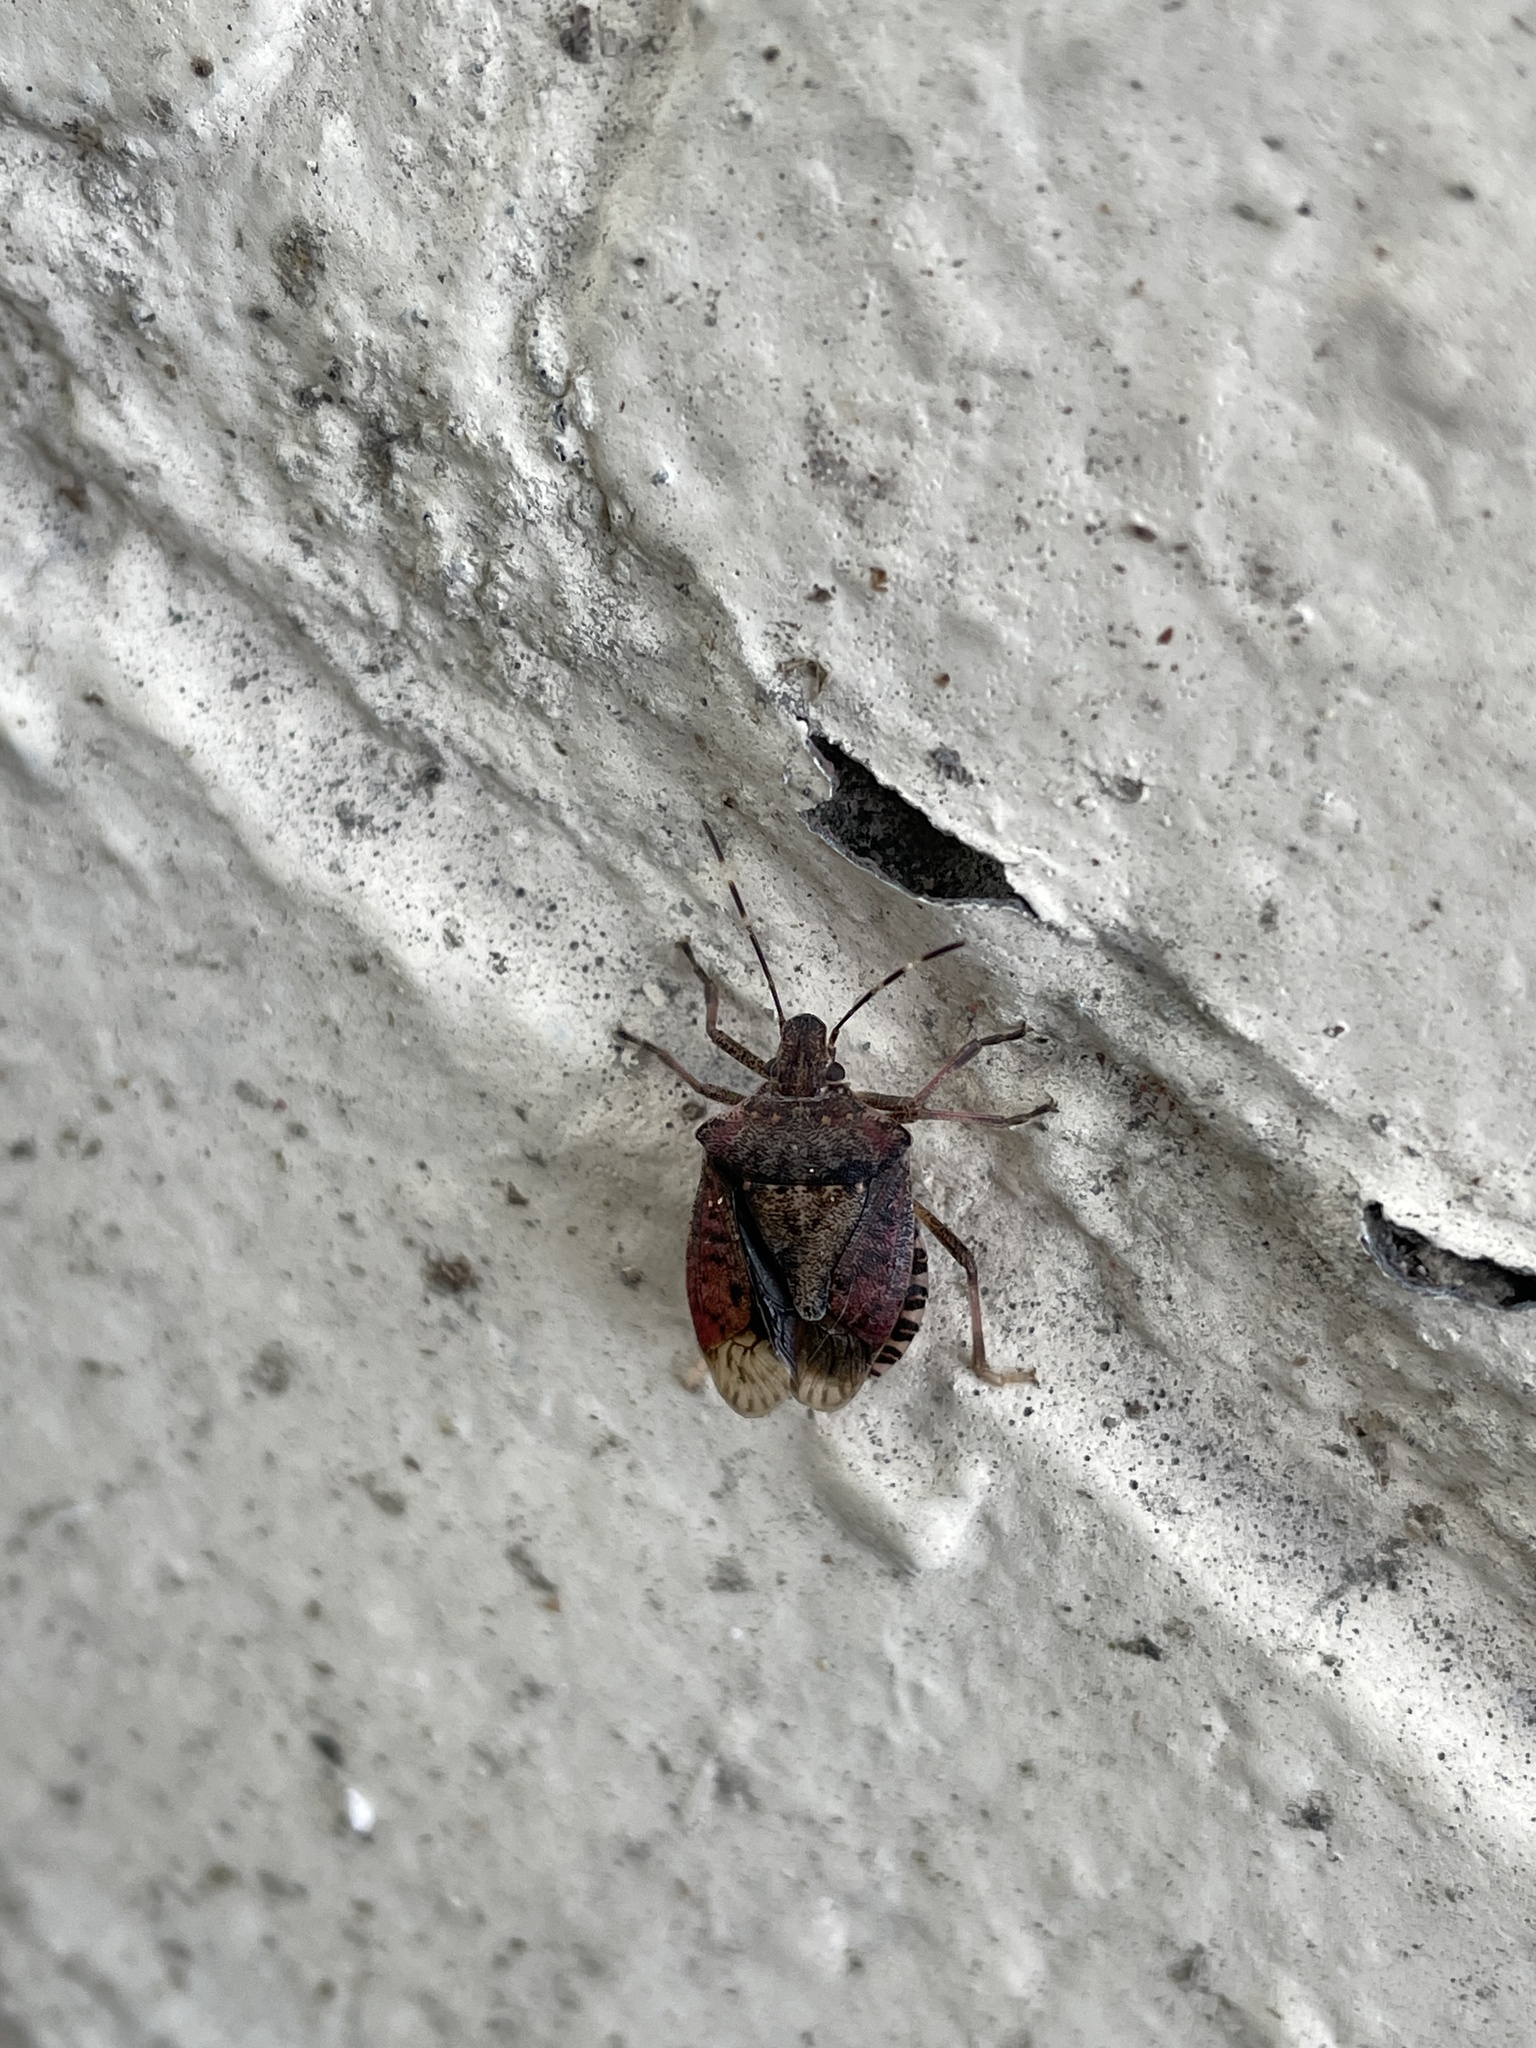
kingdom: Animalia
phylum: Arthropoda
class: Insecta
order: Hemiptera
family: Pentatomidae
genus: Halyomorpha
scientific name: Halyomorpha halys
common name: Brown marmorated stink bug
